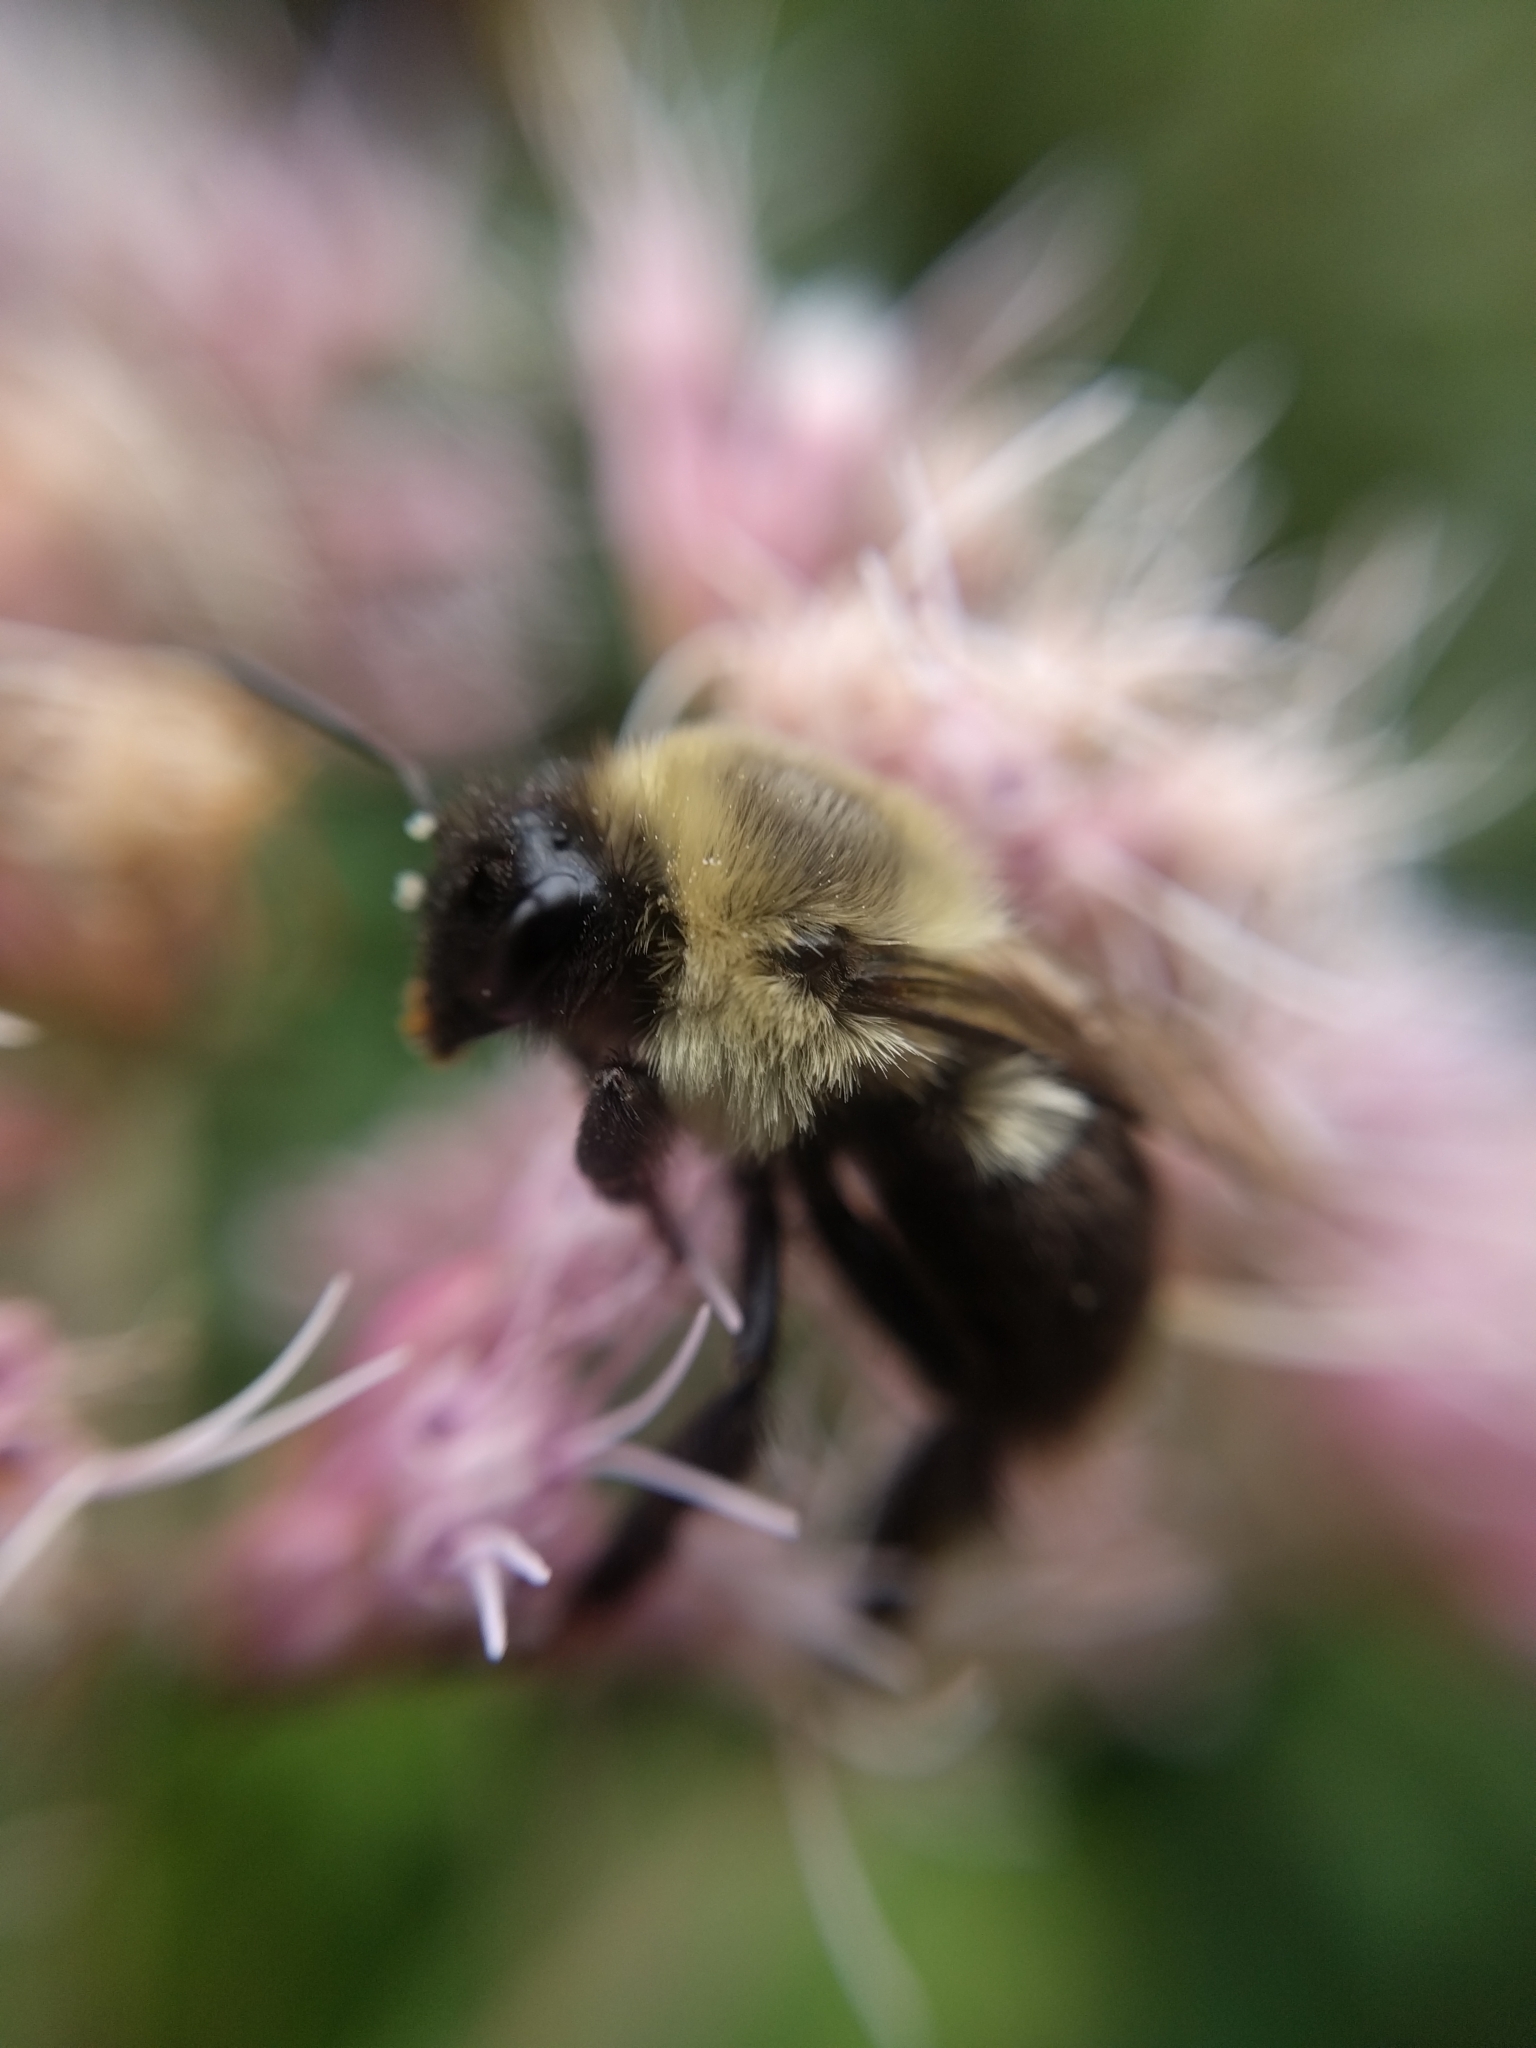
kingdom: Animalia
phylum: Arthropoda
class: Insecta
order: Hymenoptera
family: Apidae
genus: Bombus
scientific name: Bombus impatiens
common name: Common eastern bumble bee
